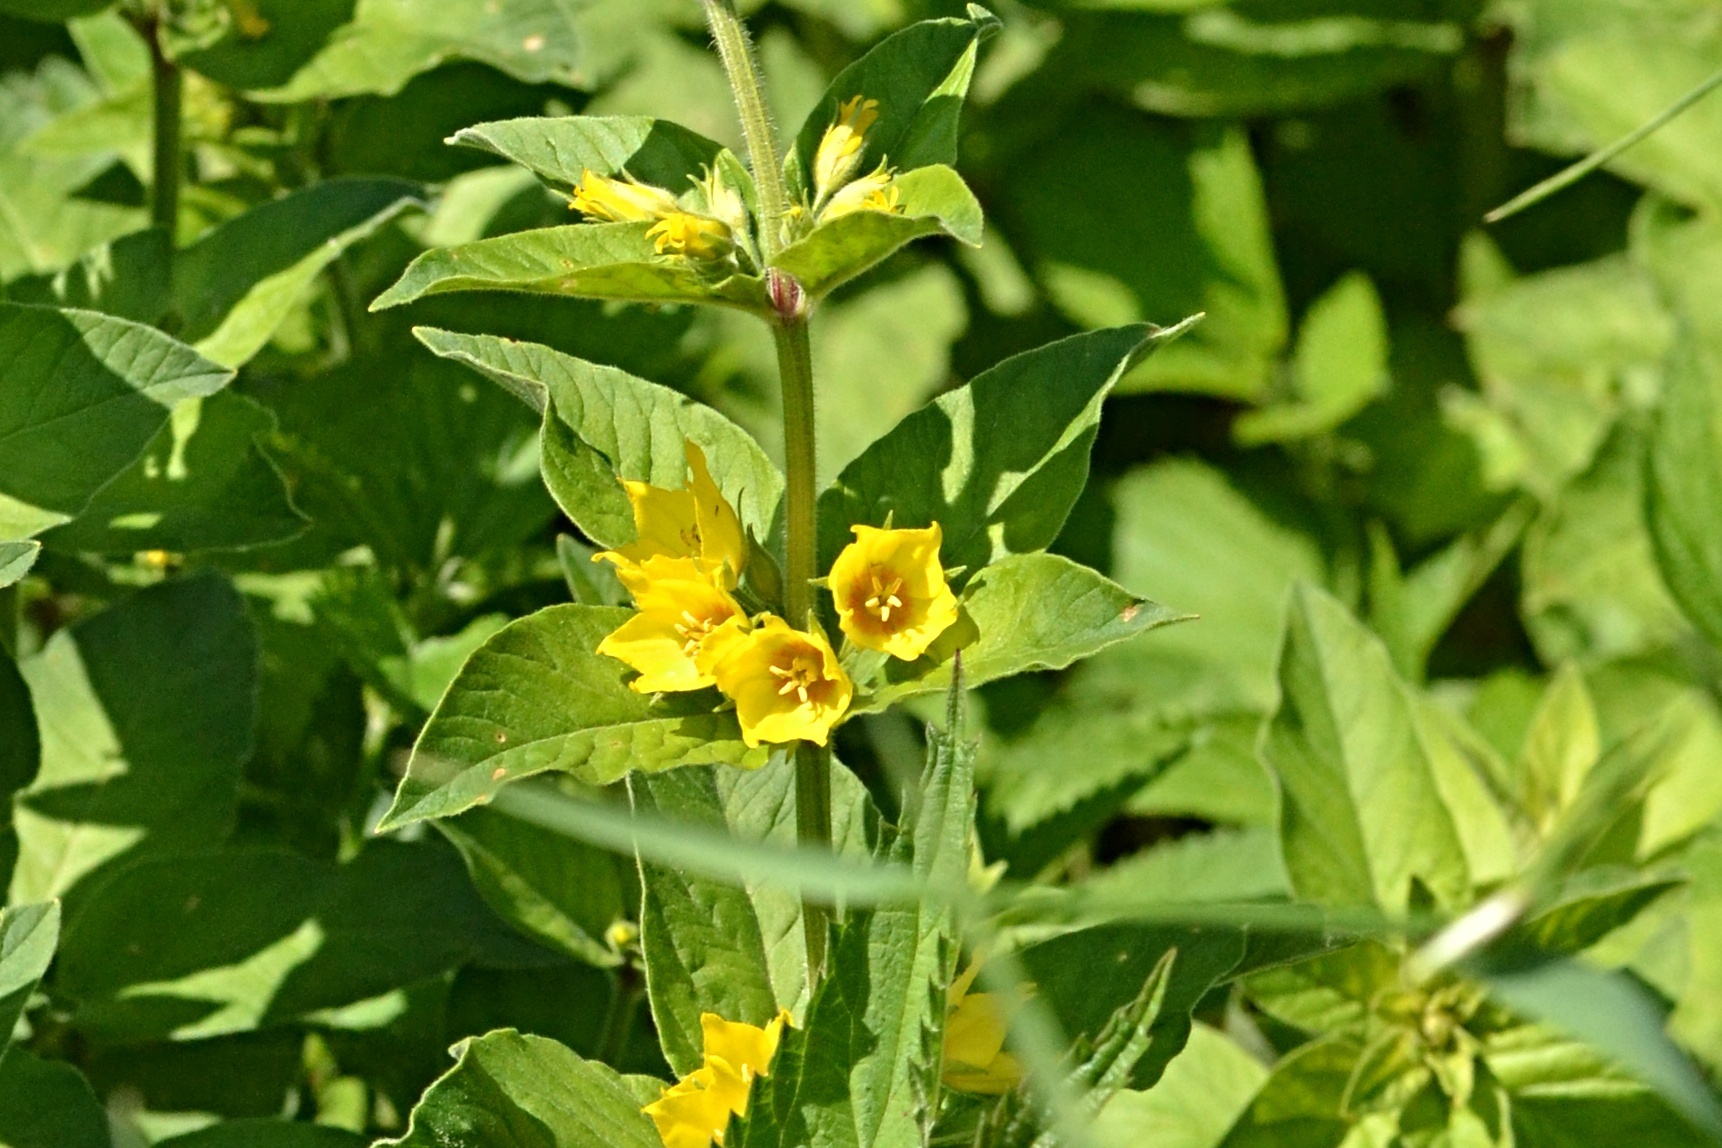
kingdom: Plantae
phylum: Tracheophyta
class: Magnoliopsida
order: Ericales
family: Primulaceae
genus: Lysimachia
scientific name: Lysimachia punctata
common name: Dotted loosestrife
